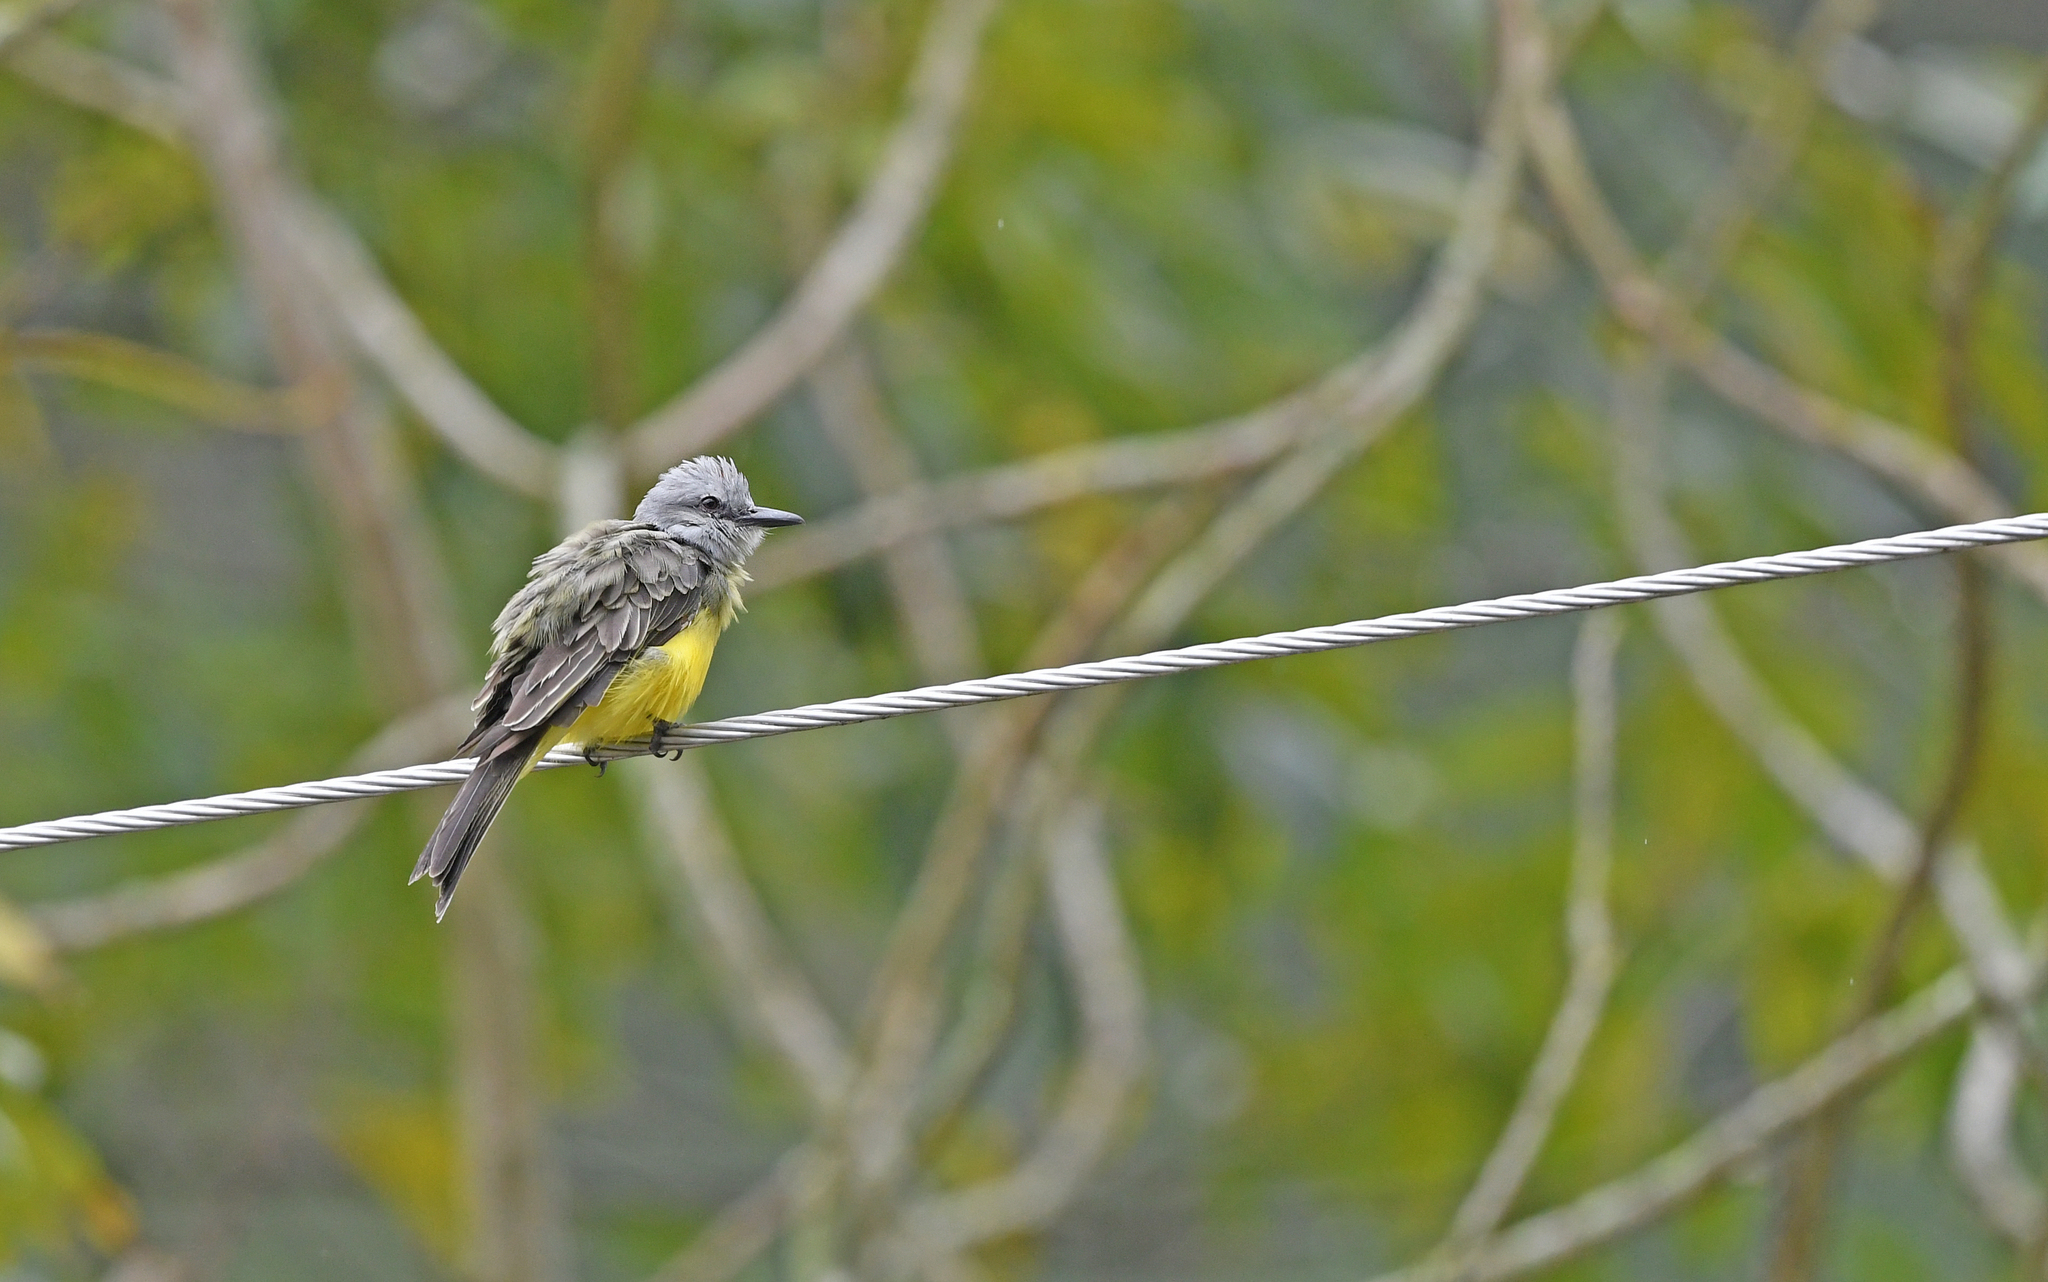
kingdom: Animalia
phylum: Chordata
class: Aves
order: Passeriformes
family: Tyrannidae
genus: Tyrannus
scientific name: Tyrannus melancholicus
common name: Tropical kingbird
